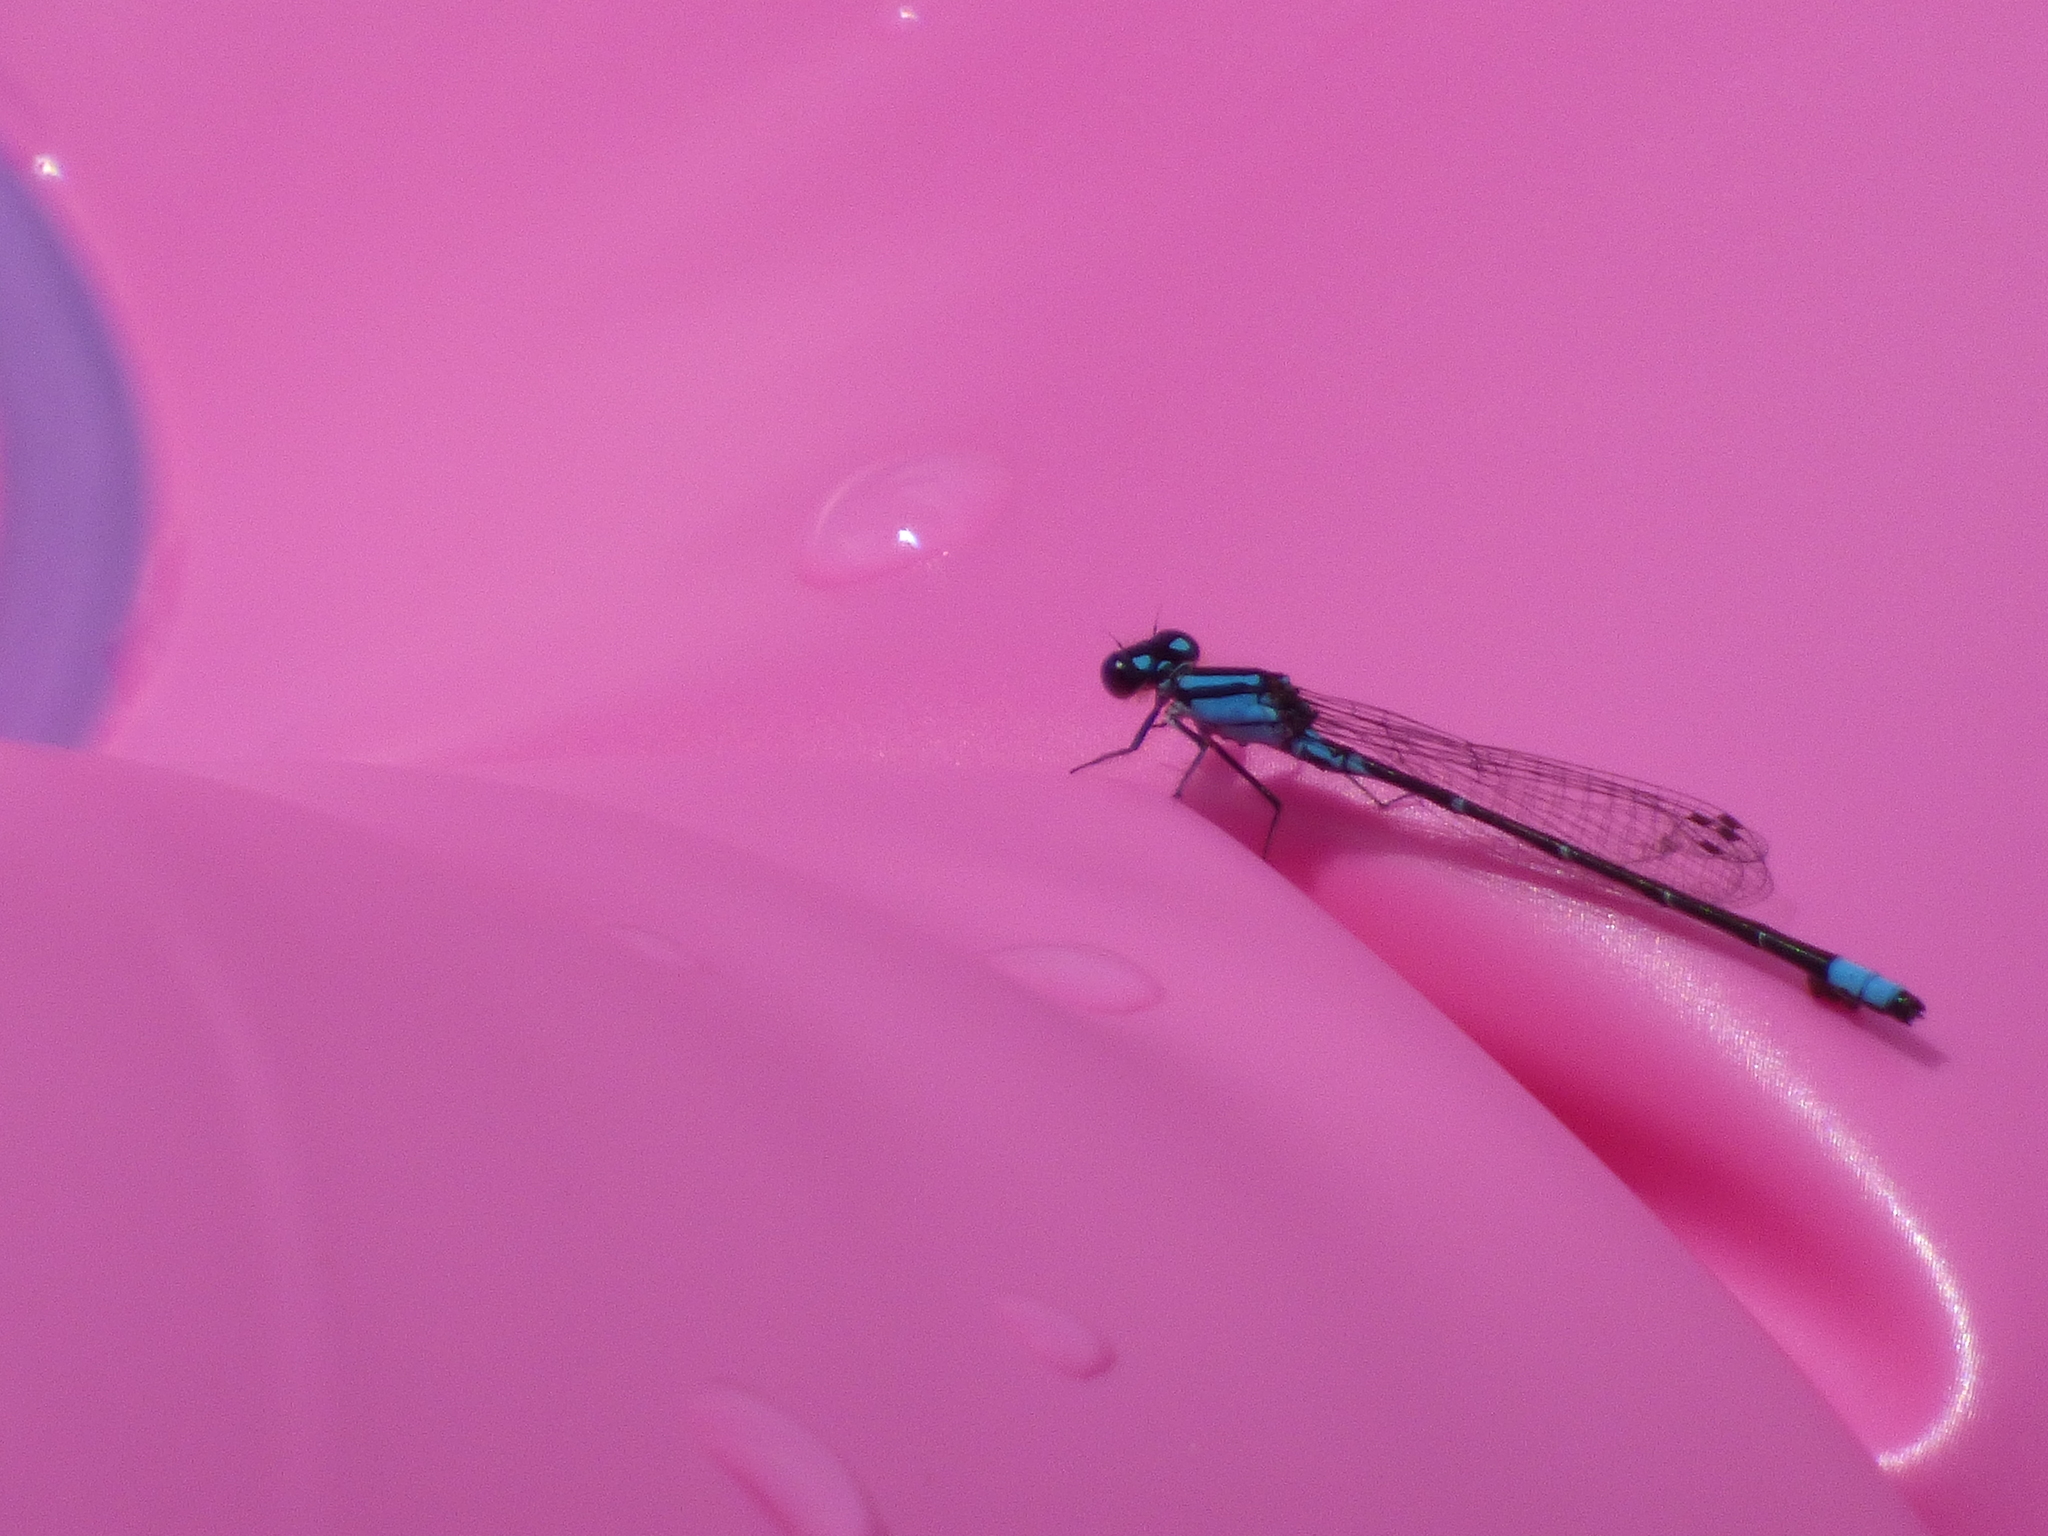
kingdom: Animalia
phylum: Arthropoda
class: Insecta
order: Odonata
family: Coenagrionidae
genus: Enallagma
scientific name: Enallagma geminatum
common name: Skimming bluet
